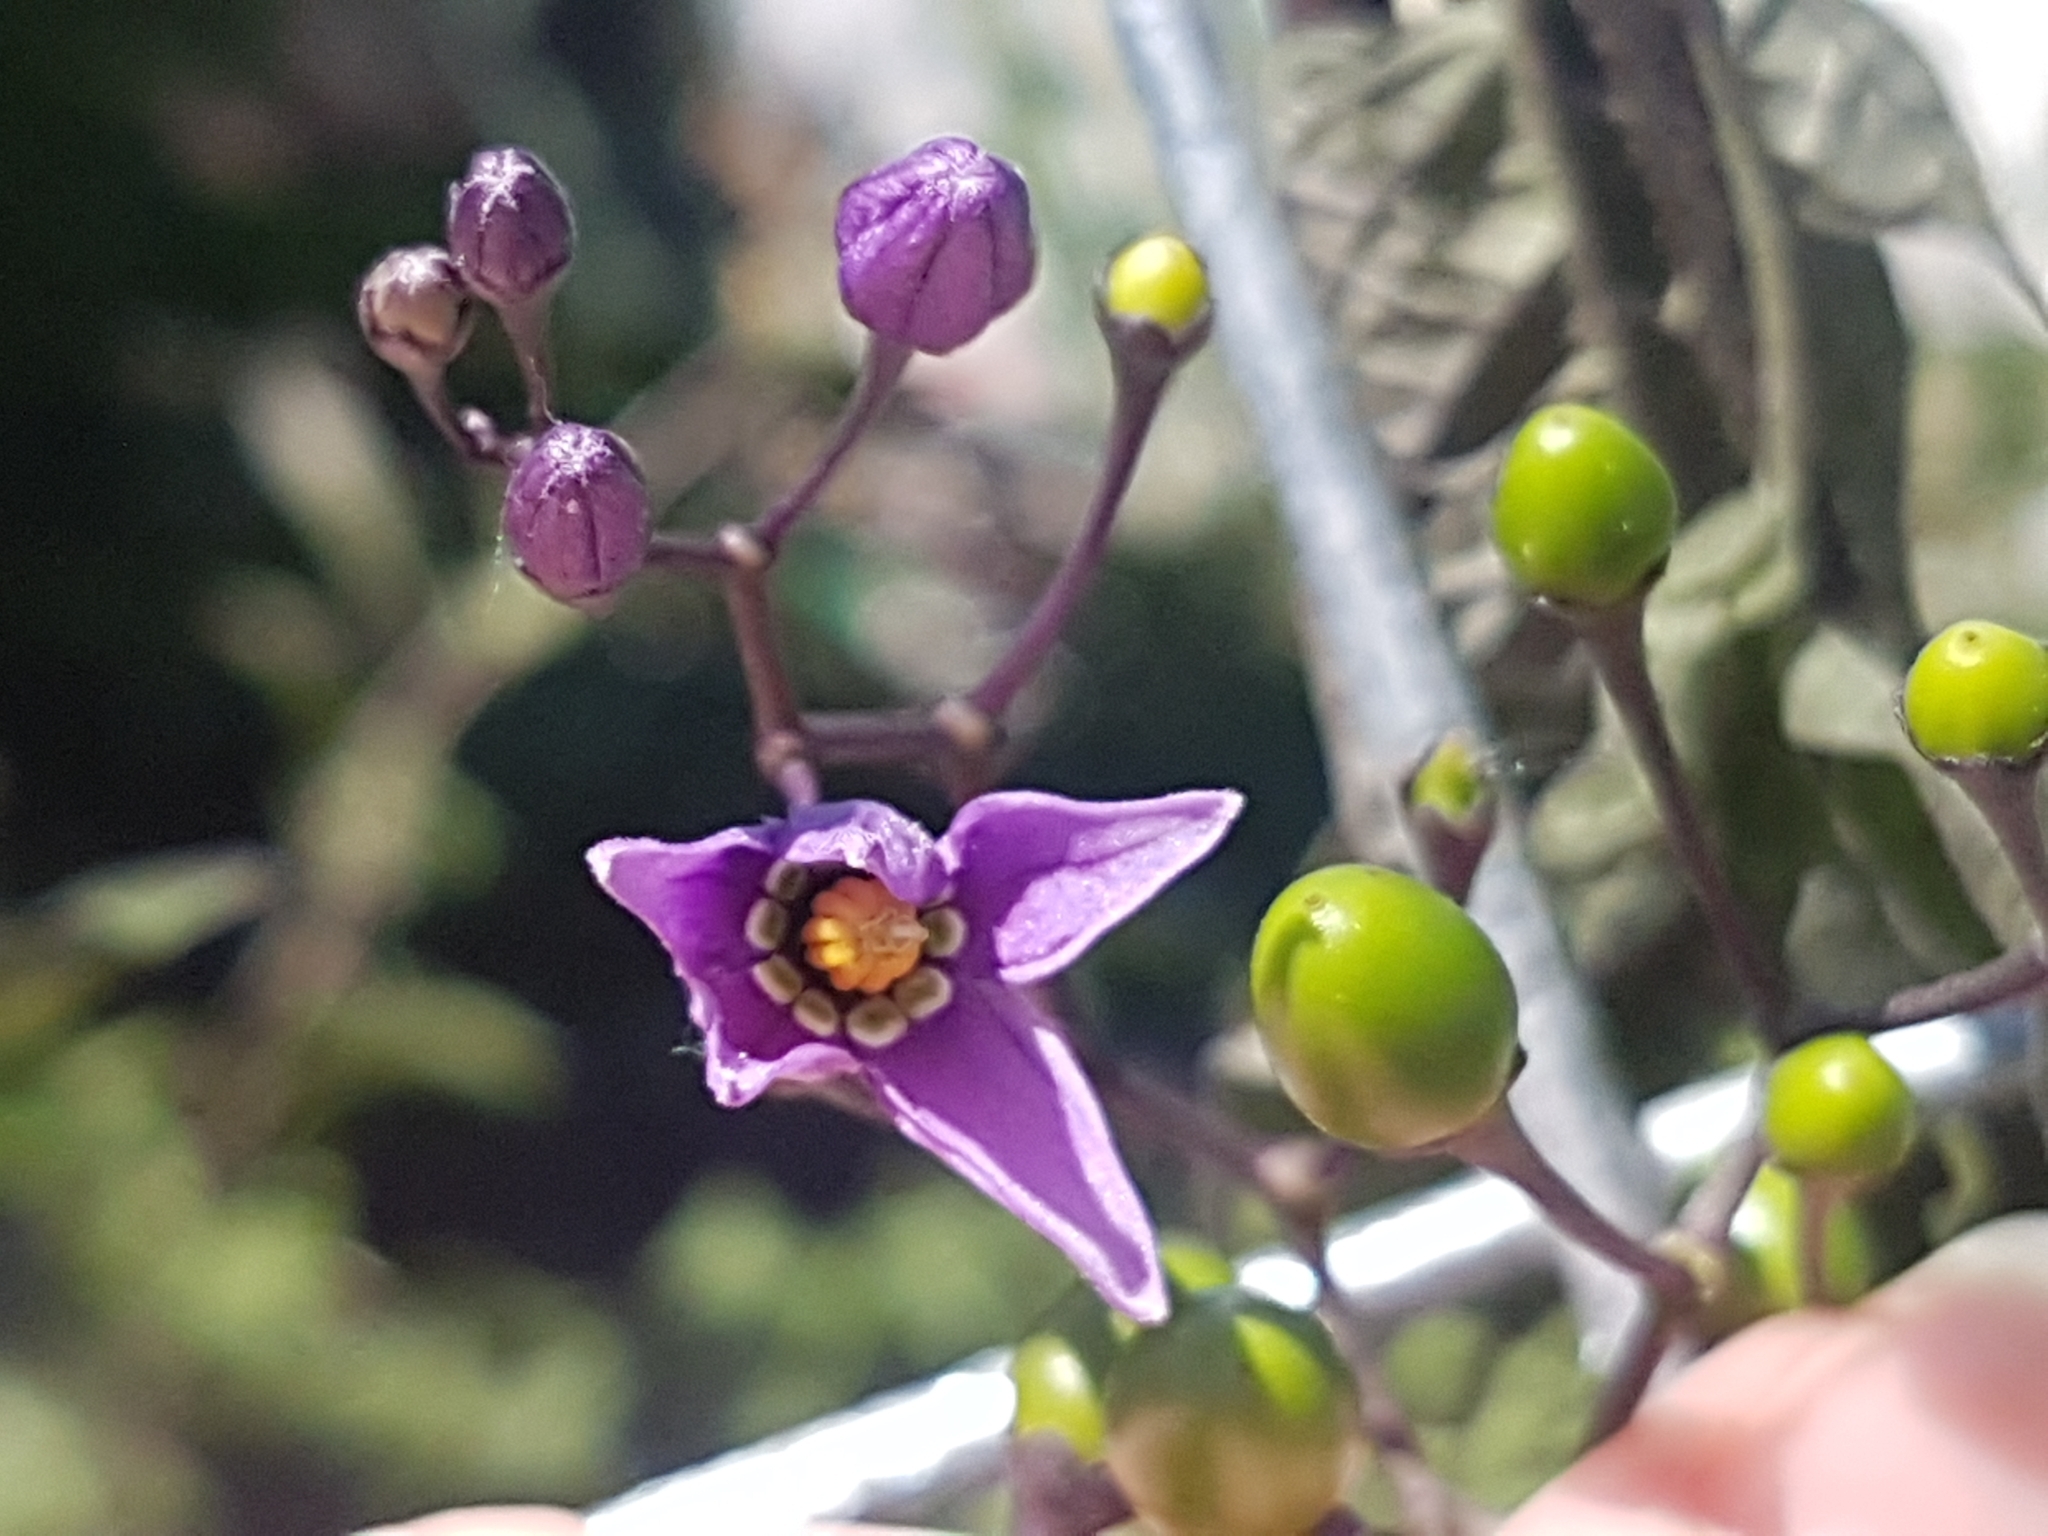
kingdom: Plantae
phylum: Tracheophyta
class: Magnoliopsida
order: Solanales
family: Solanaceae
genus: Solanum
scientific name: Solanum dulcamara
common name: Climbing nightshade
